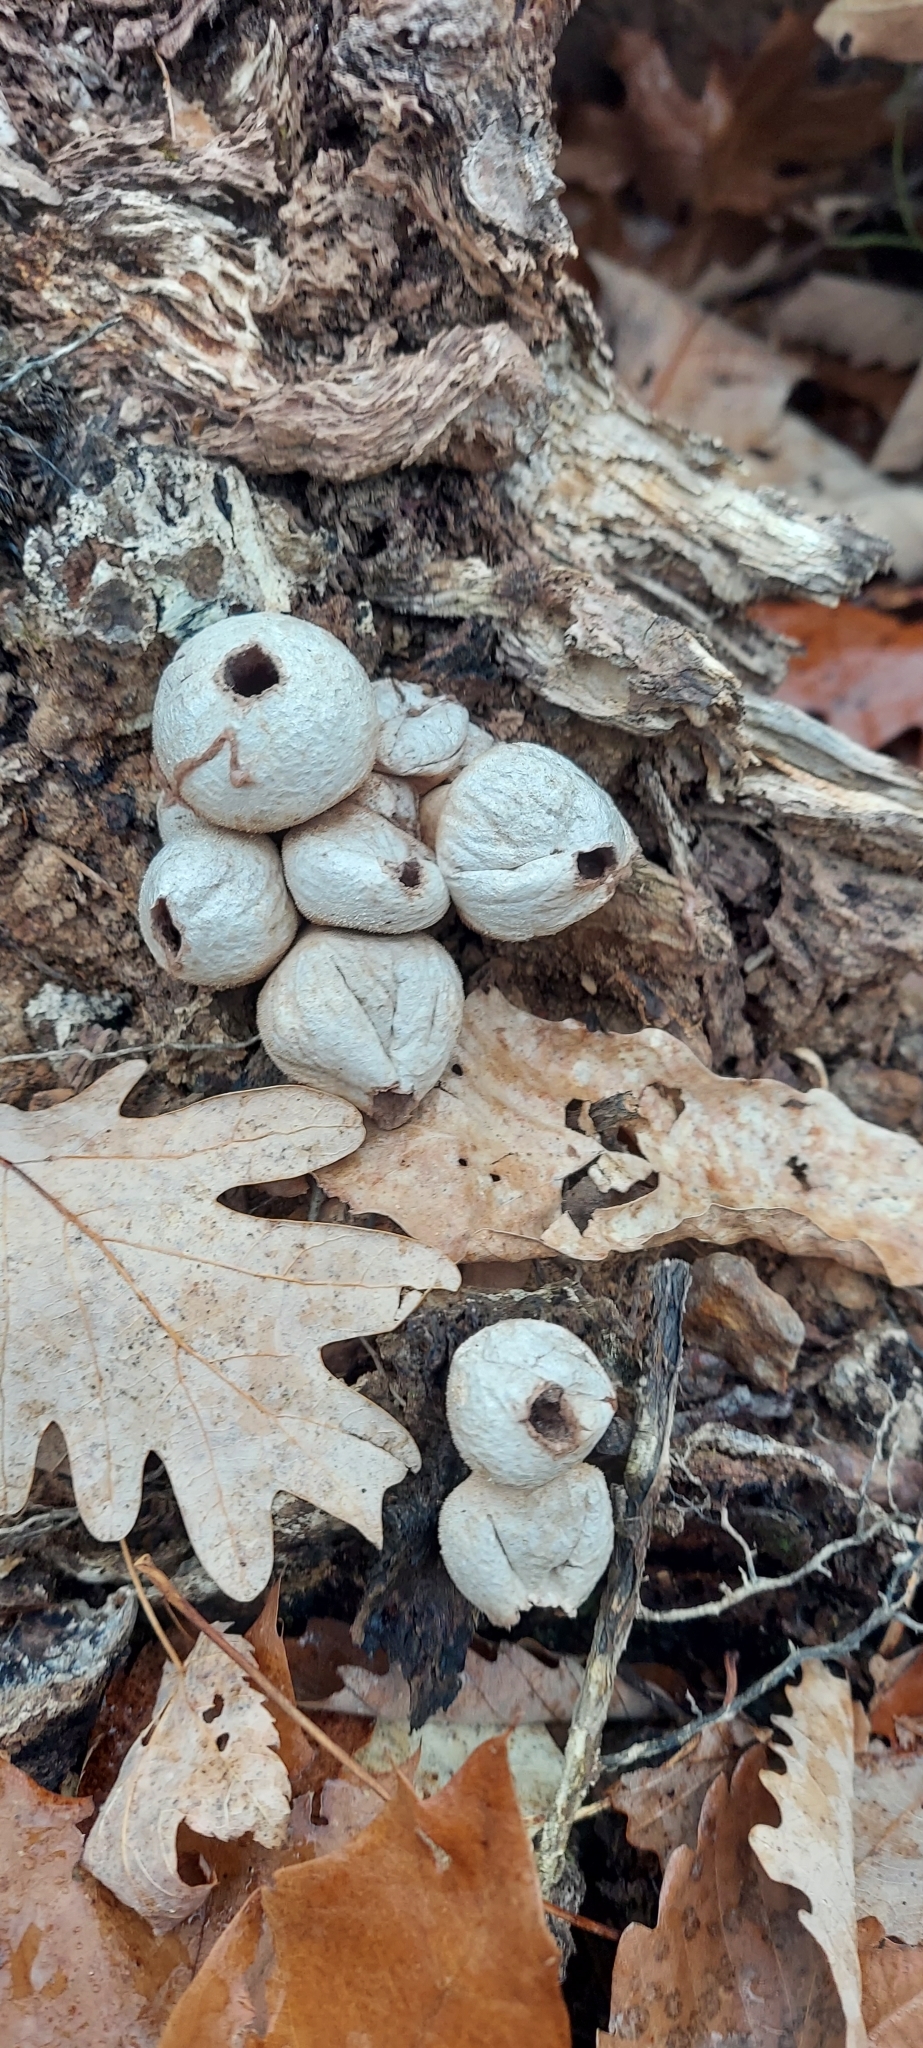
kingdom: Fungi
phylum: Basidiomycota
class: Agaricomycetes
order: Agaricales
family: Lycoperdaceae
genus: Apioperdon
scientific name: Apioperdon pyriforme
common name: Pear-shaped puffball
